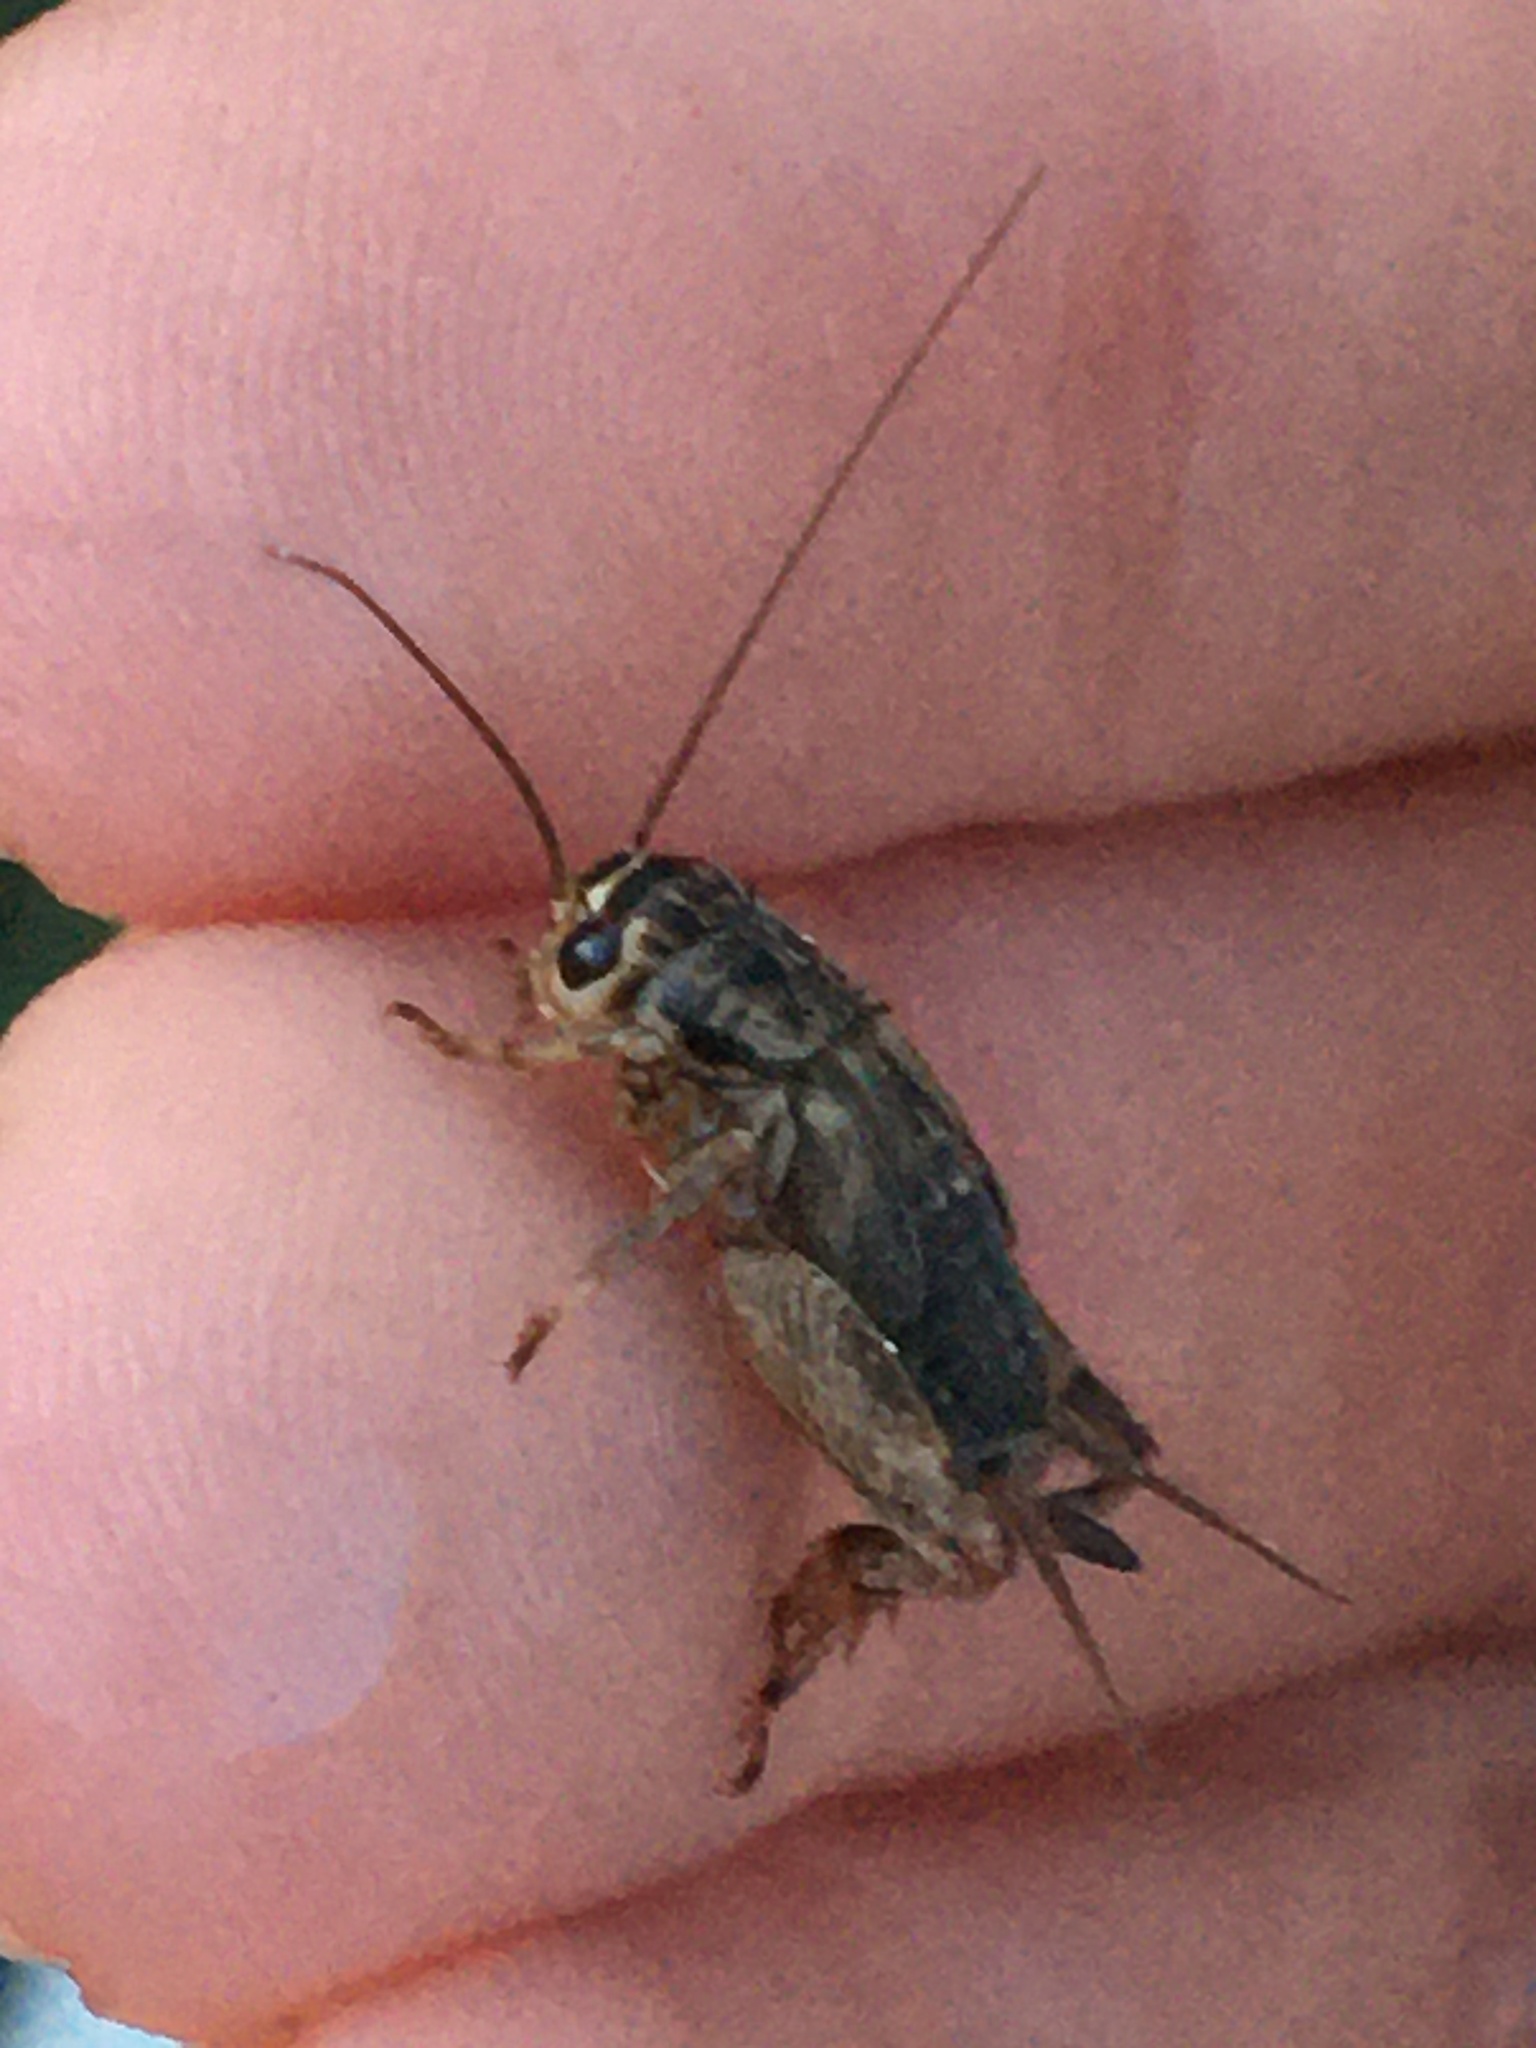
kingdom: Animalia
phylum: Arthropoda
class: Insecta
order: Orthoptera
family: Gryllidae
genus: Eumodicogryllus
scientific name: Eumodicogryllus bordigalensis
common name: Bordeaux cricket
